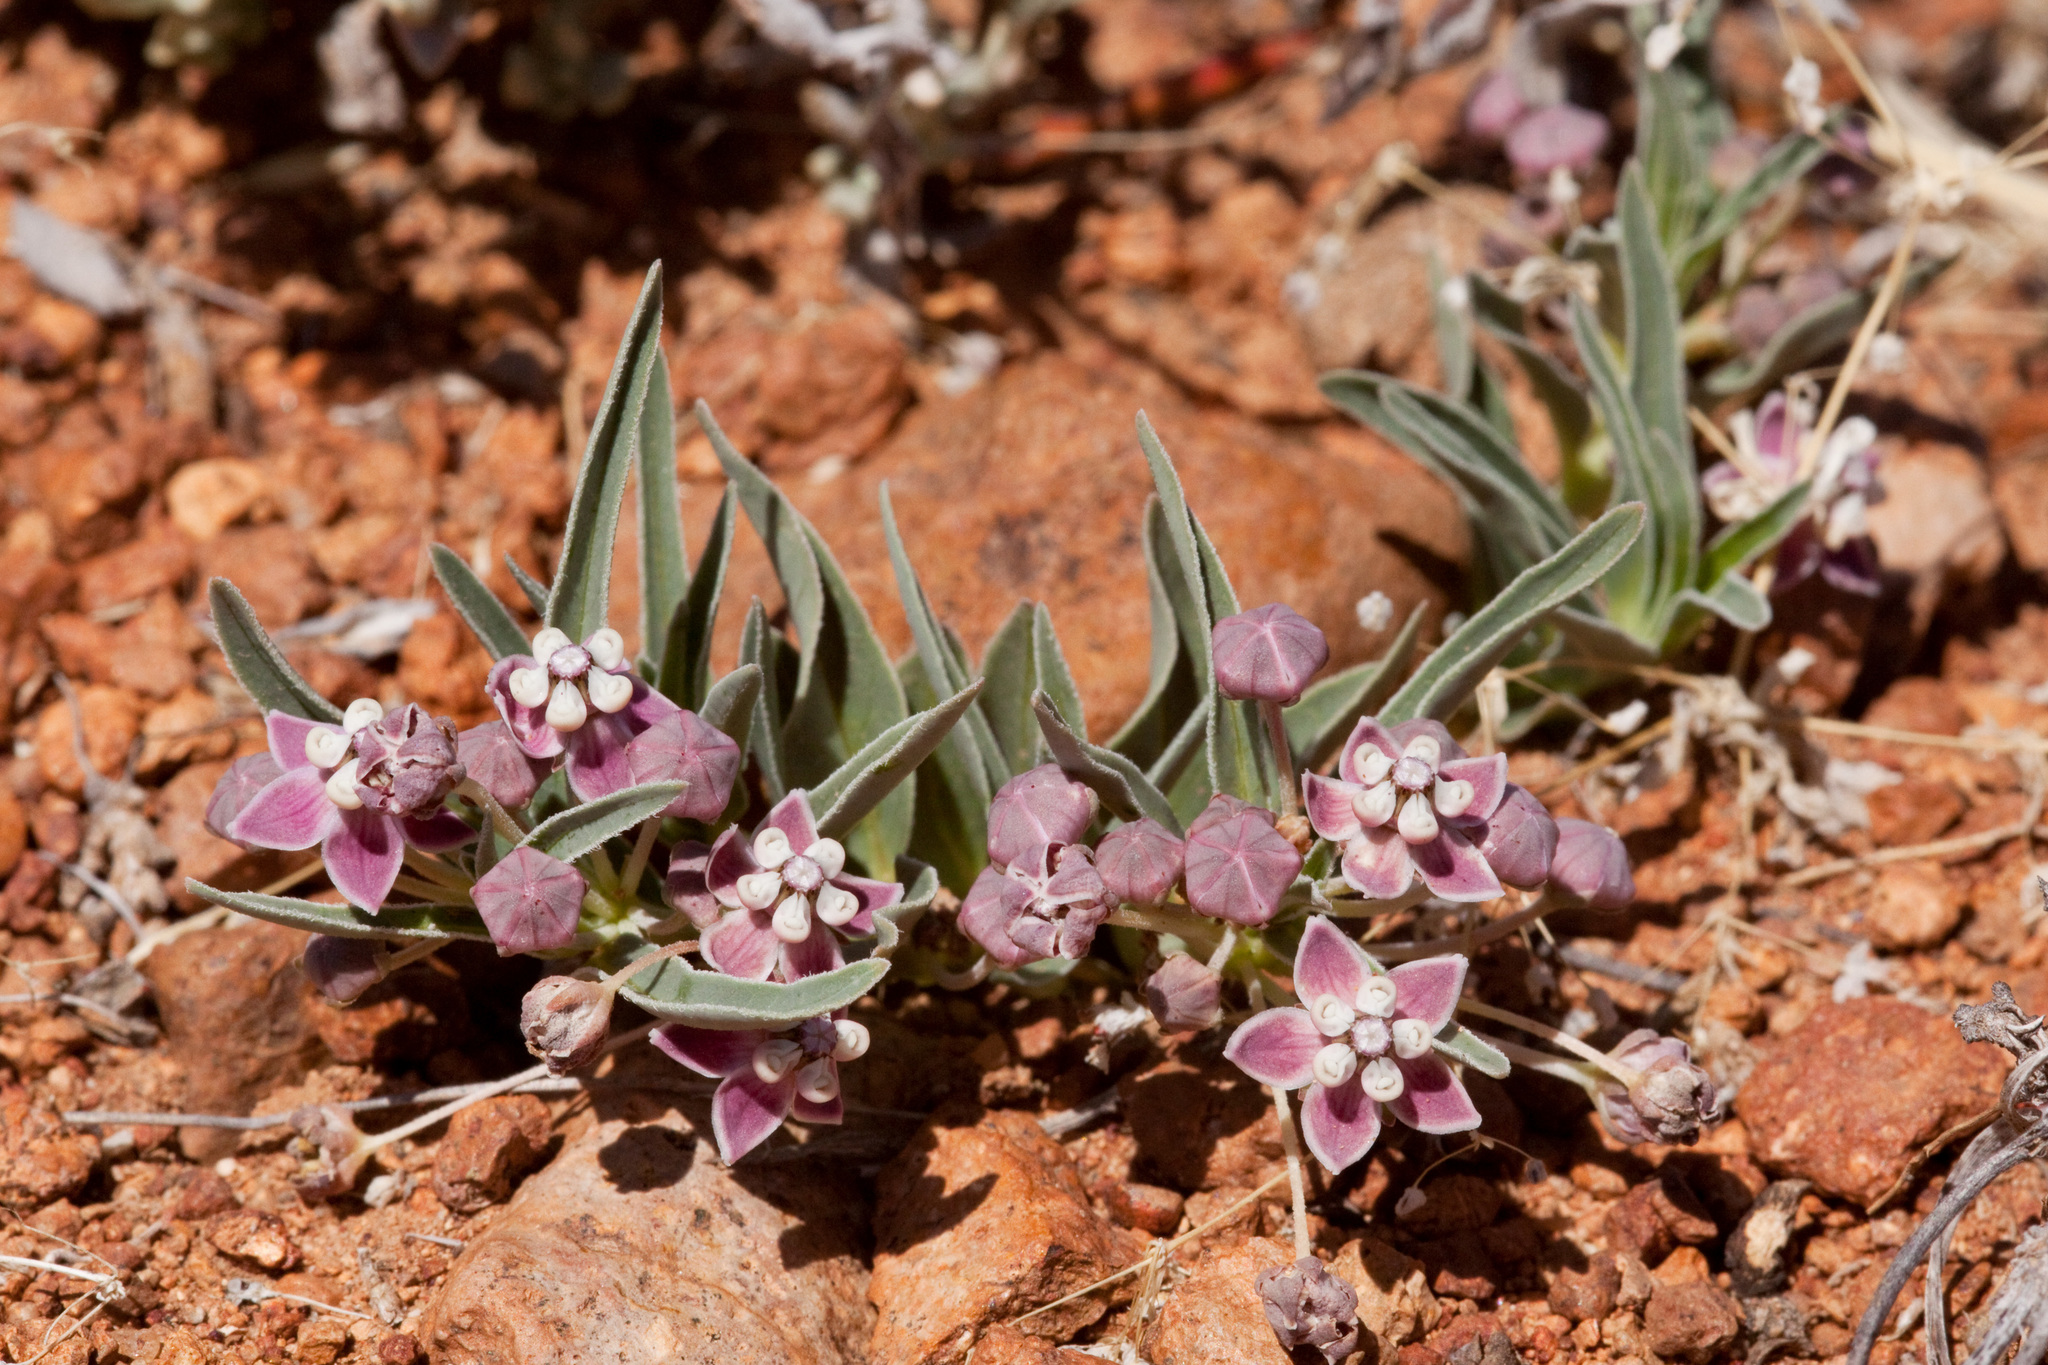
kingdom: Plantae
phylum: Tracheophyta
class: Magnoliopsida
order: Gentianales
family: Apocynaceae
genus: Asclepias
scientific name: Asclepias uncialis
